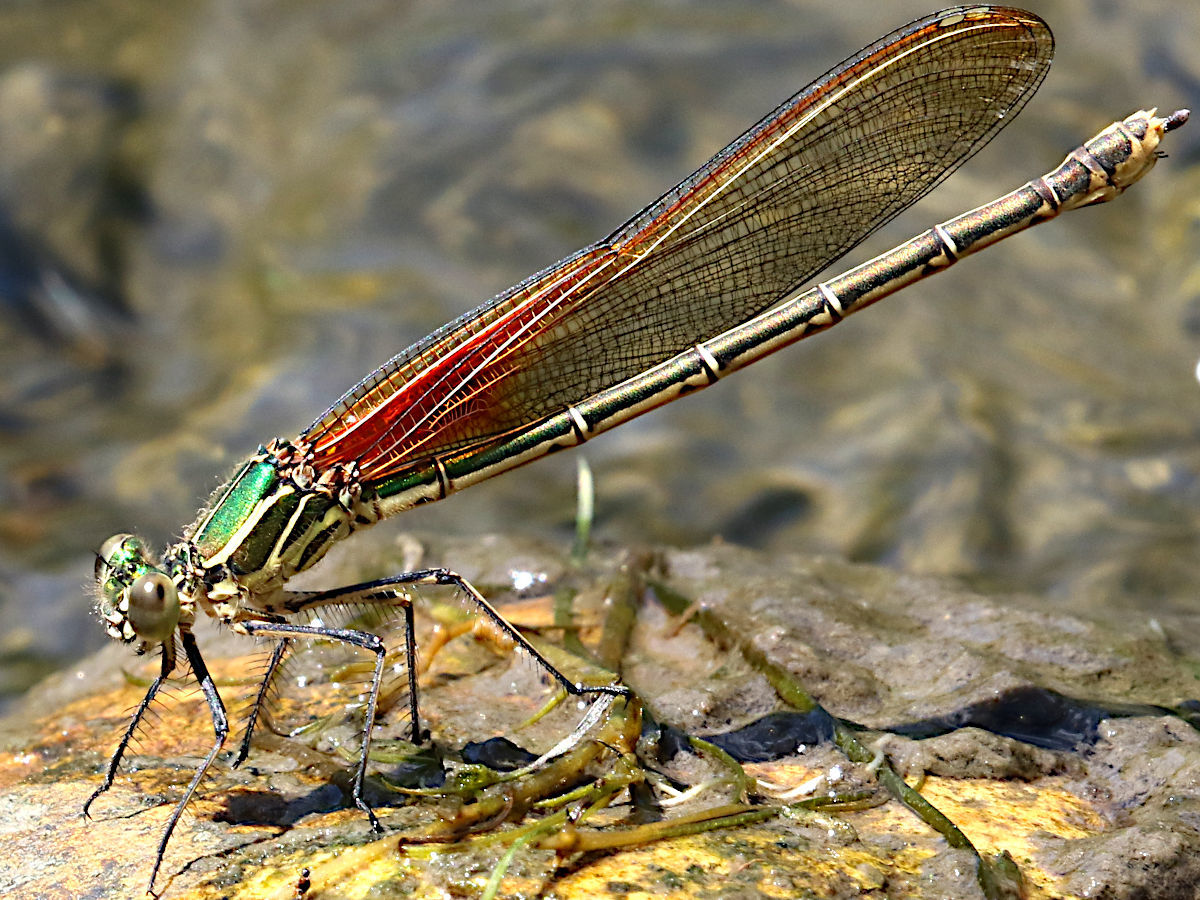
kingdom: Animalia
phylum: Arthropoda
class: Insecta
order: Odonata
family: Calopterygidae
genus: Hetaerina
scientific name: Hetaerina americana
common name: American rubyspot
